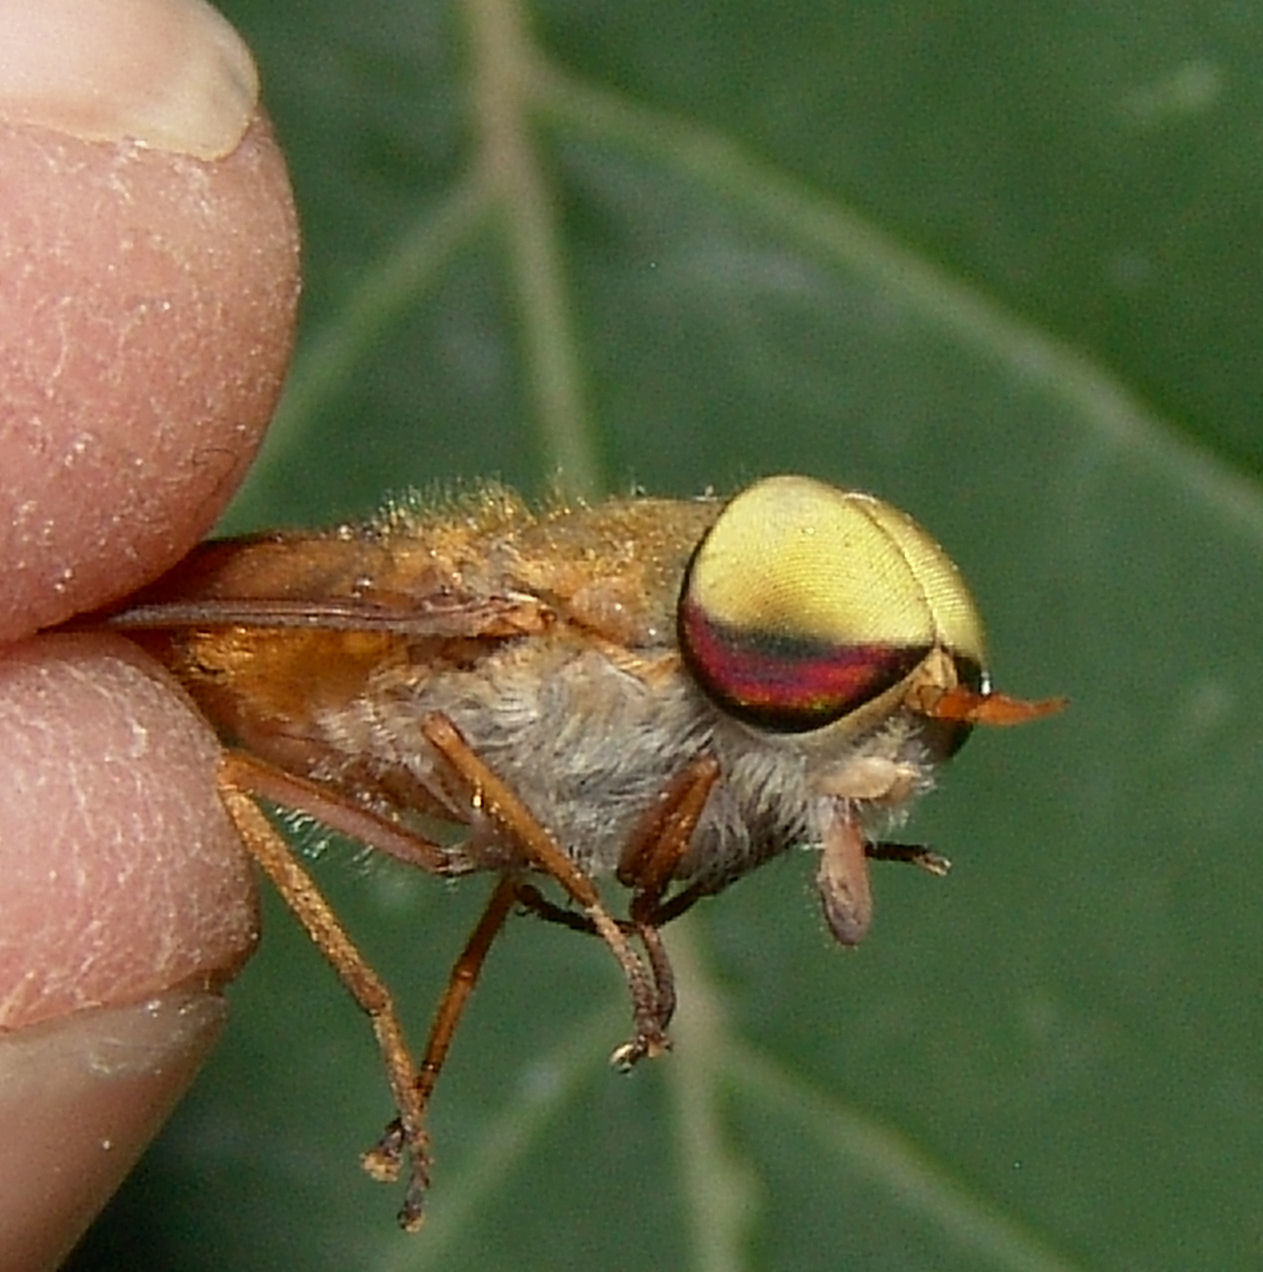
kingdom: Animalia
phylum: Arthropoda
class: Insecta
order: Diptera
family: Tabanidae
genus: Tabanus
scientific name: Tabanus pallidescens
